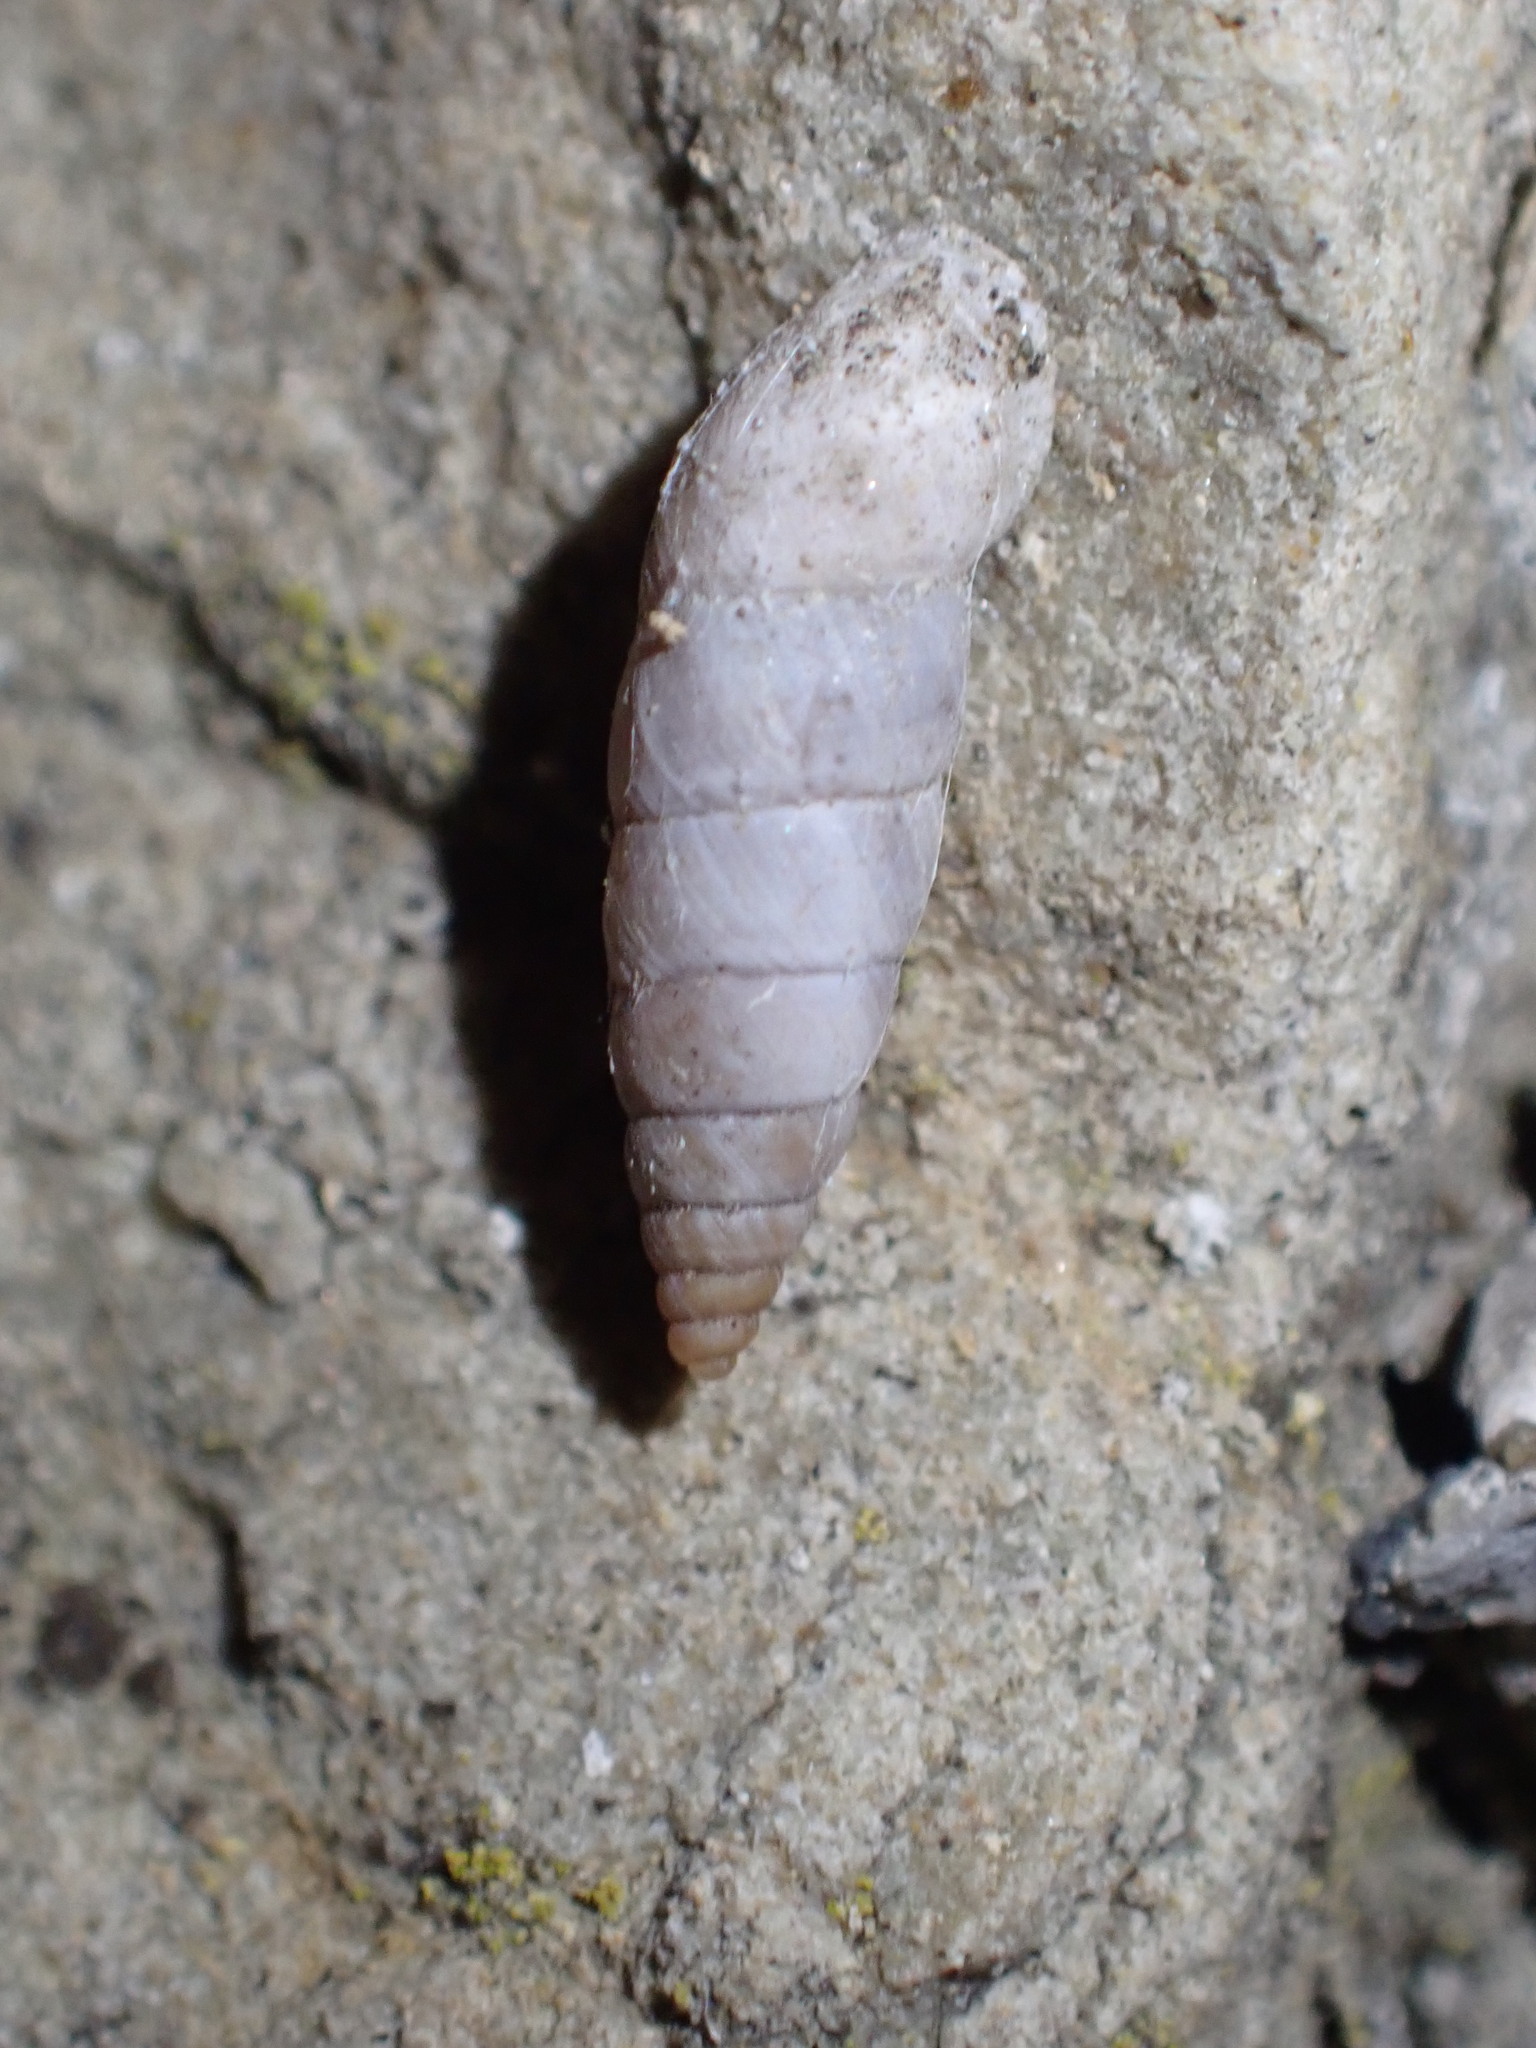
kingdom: Animalia
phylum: Mollusca
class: Gastropoda
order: Stylommatophora
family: Chondrinidae
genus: Solatopupa
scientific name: Solatopupa similis
